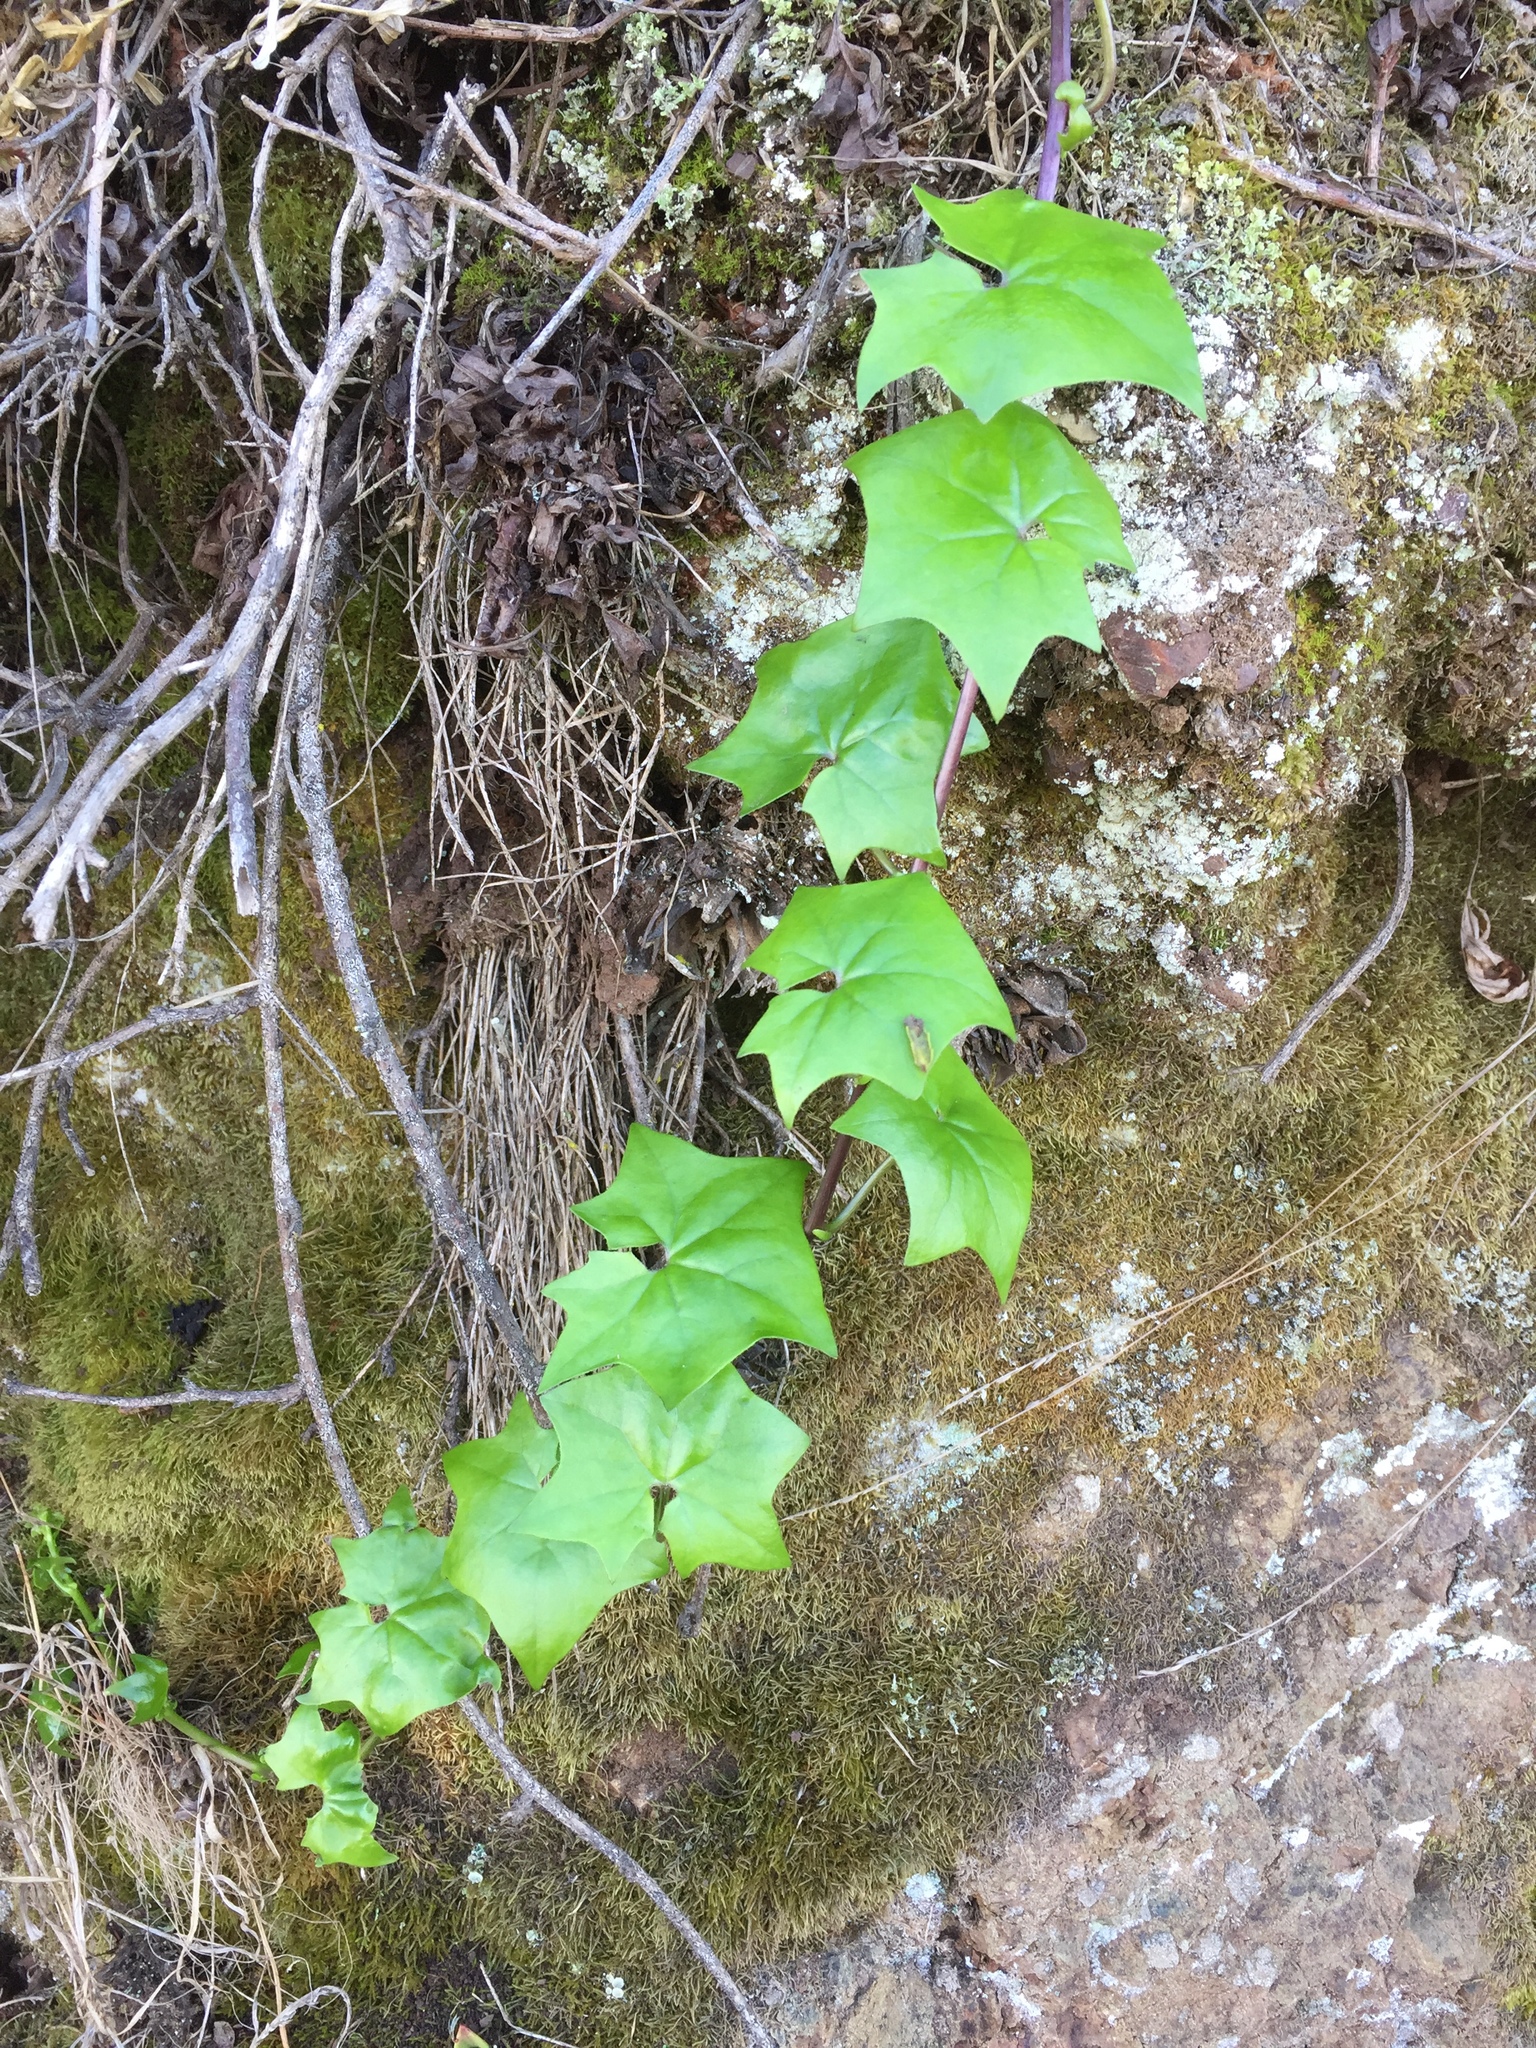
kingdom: Plantae
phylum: Tracheophyta
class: Magnoliopsida
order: Asterales
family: Asteraceae
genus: Delairea
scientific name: Delairea odorata
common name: Cape-ivy
